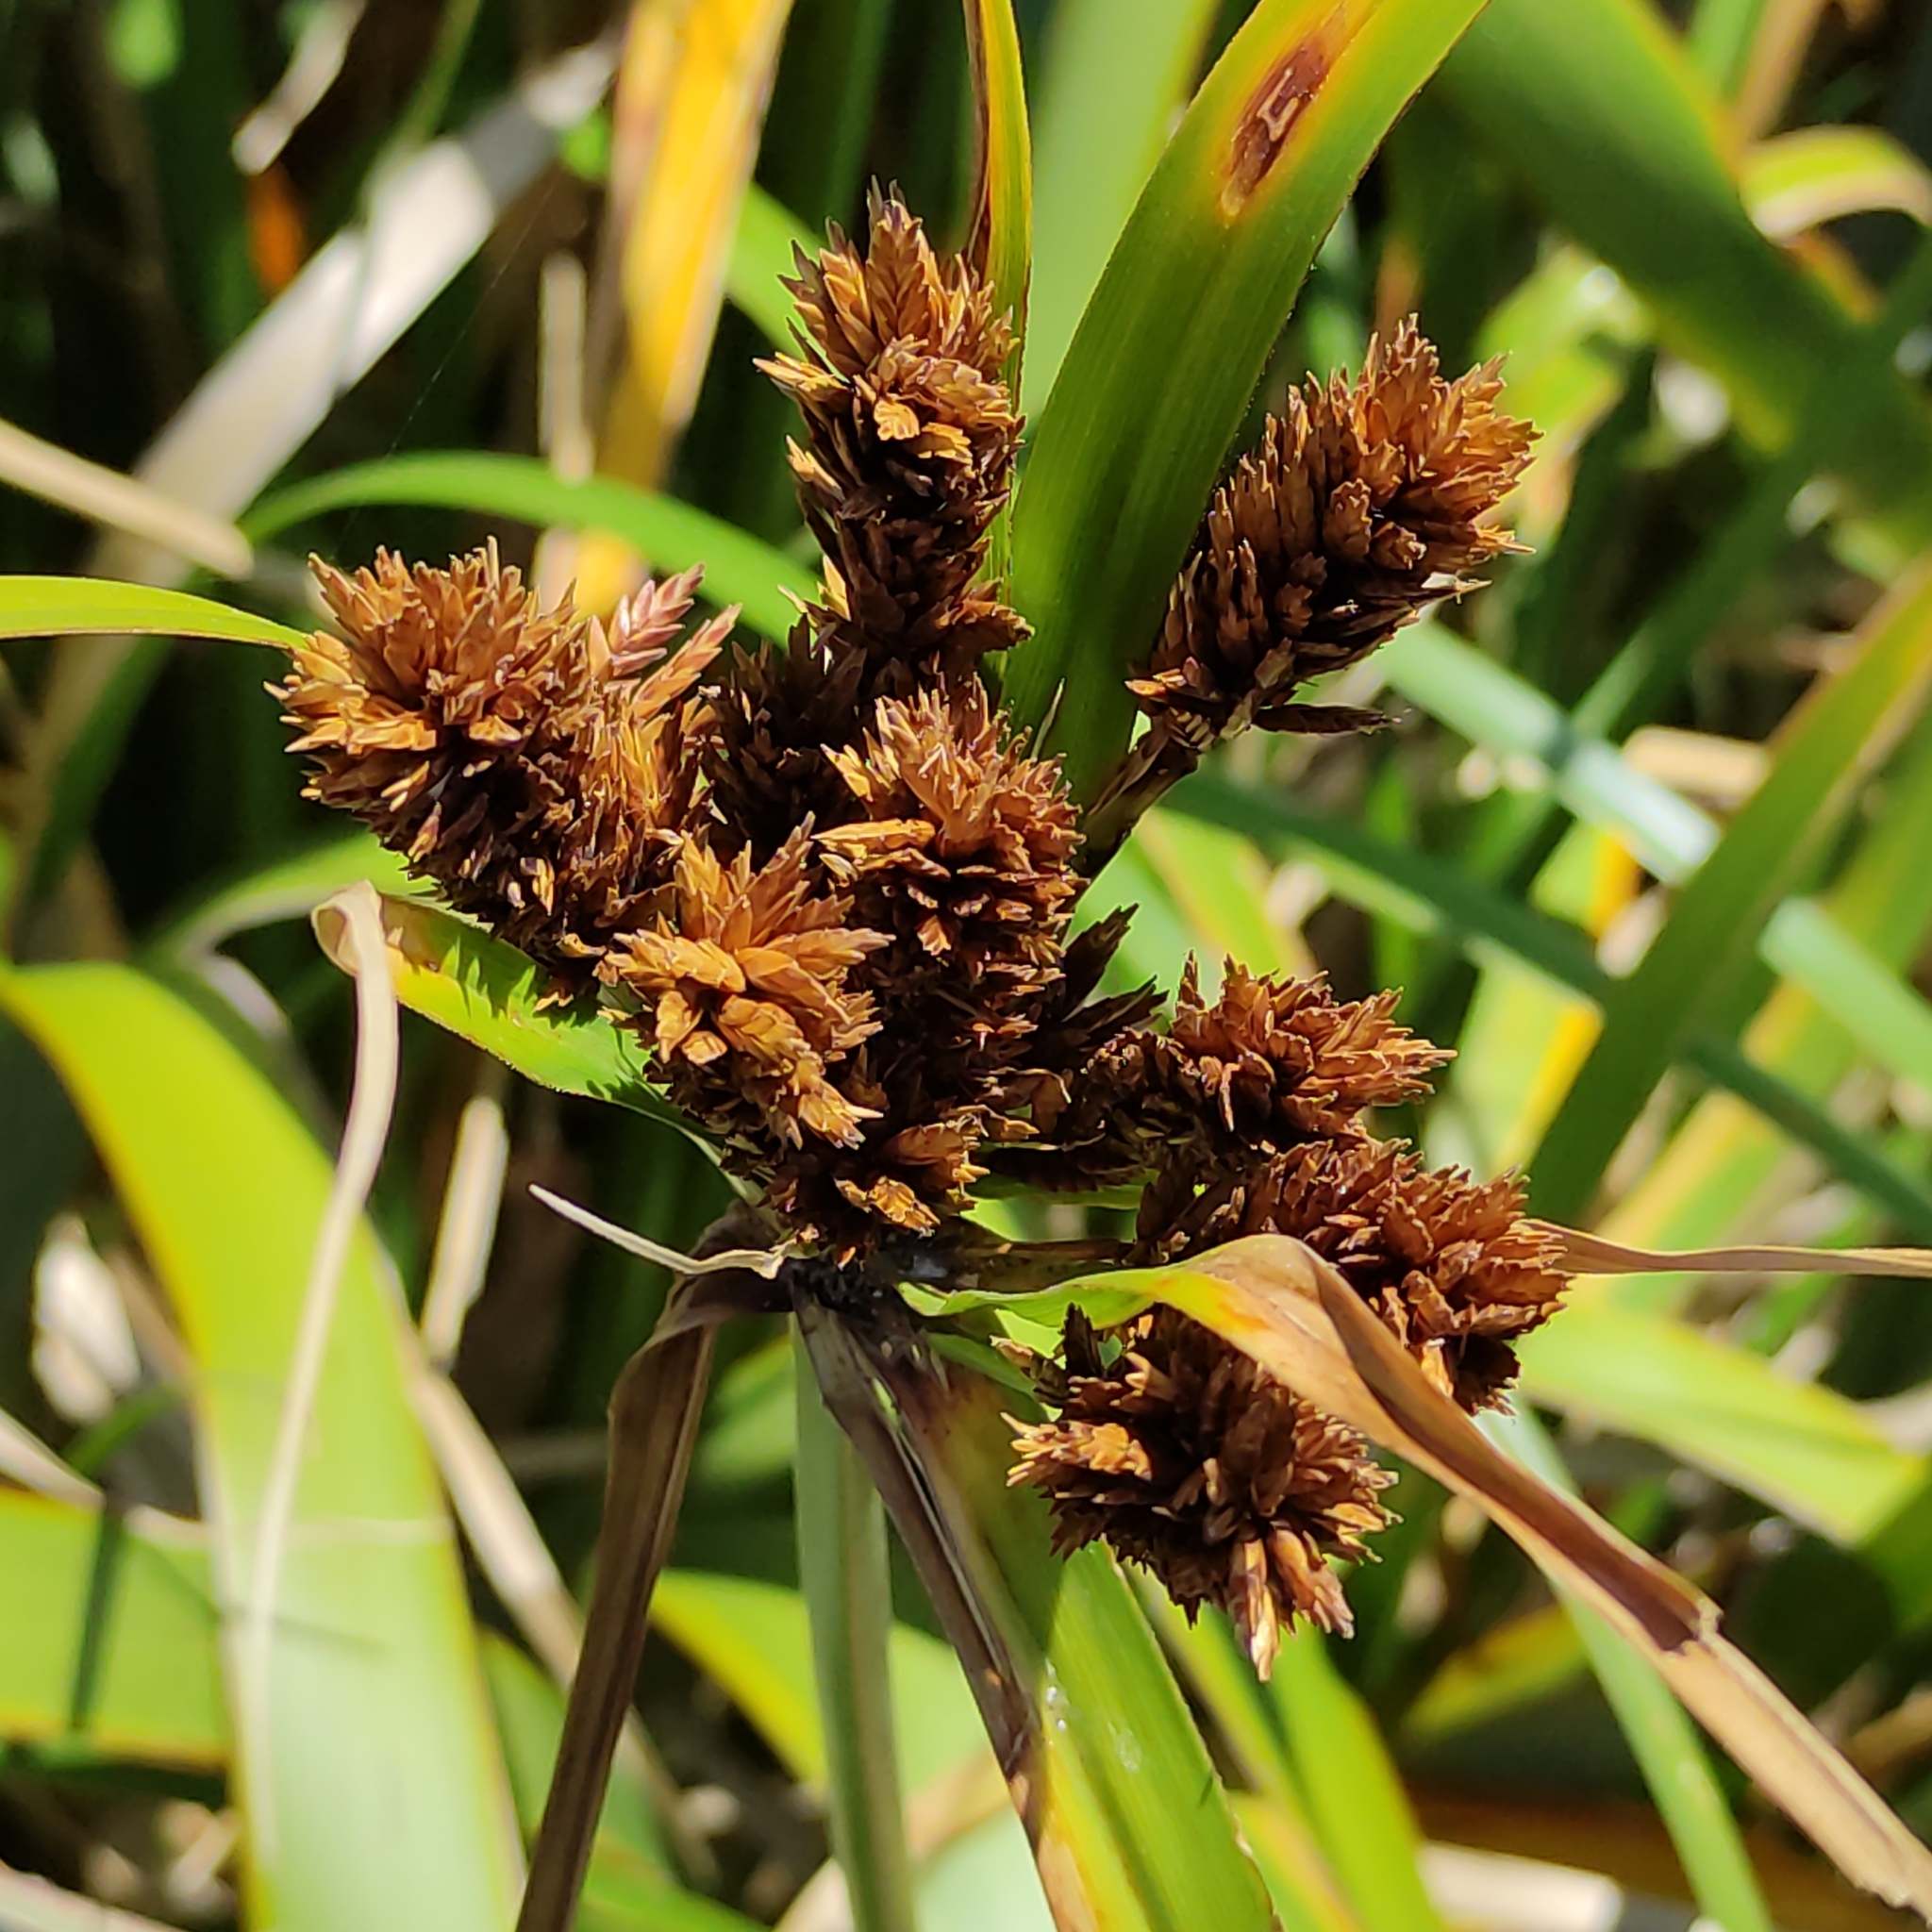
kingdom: Plantae
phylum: Tracheophyta
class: Liliopsida
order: Poales
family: Cyperaceae
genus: Cyperus
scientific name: Cyperus ustulatus
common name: Giant umbrella-sedge
